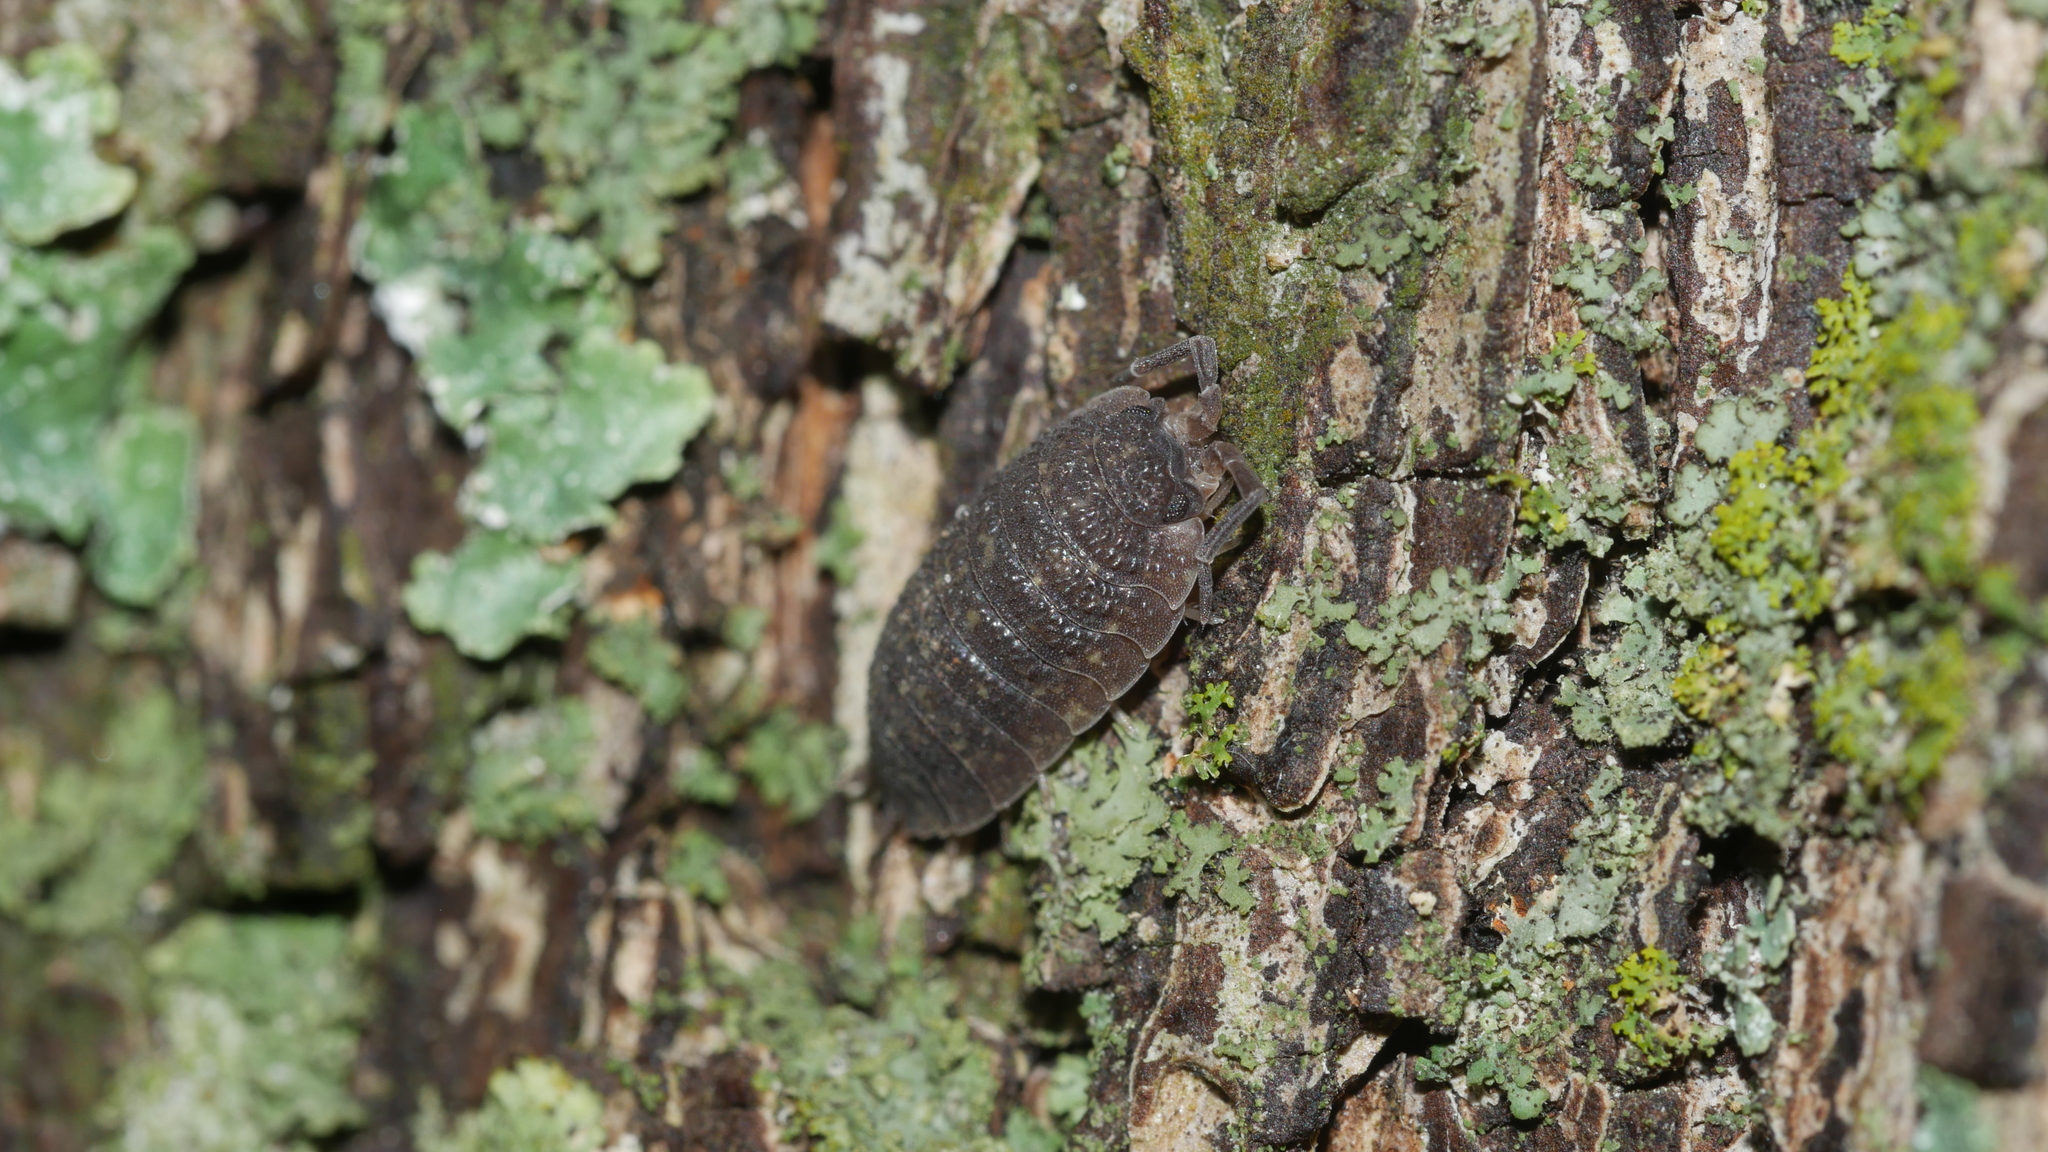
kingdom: Animalia
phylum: Arthropoda
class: Malacostraca
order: Isopoda
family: Porcellionidae
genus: Porcellio
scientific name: Porcellio scaber
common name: Common rough woodlouse
